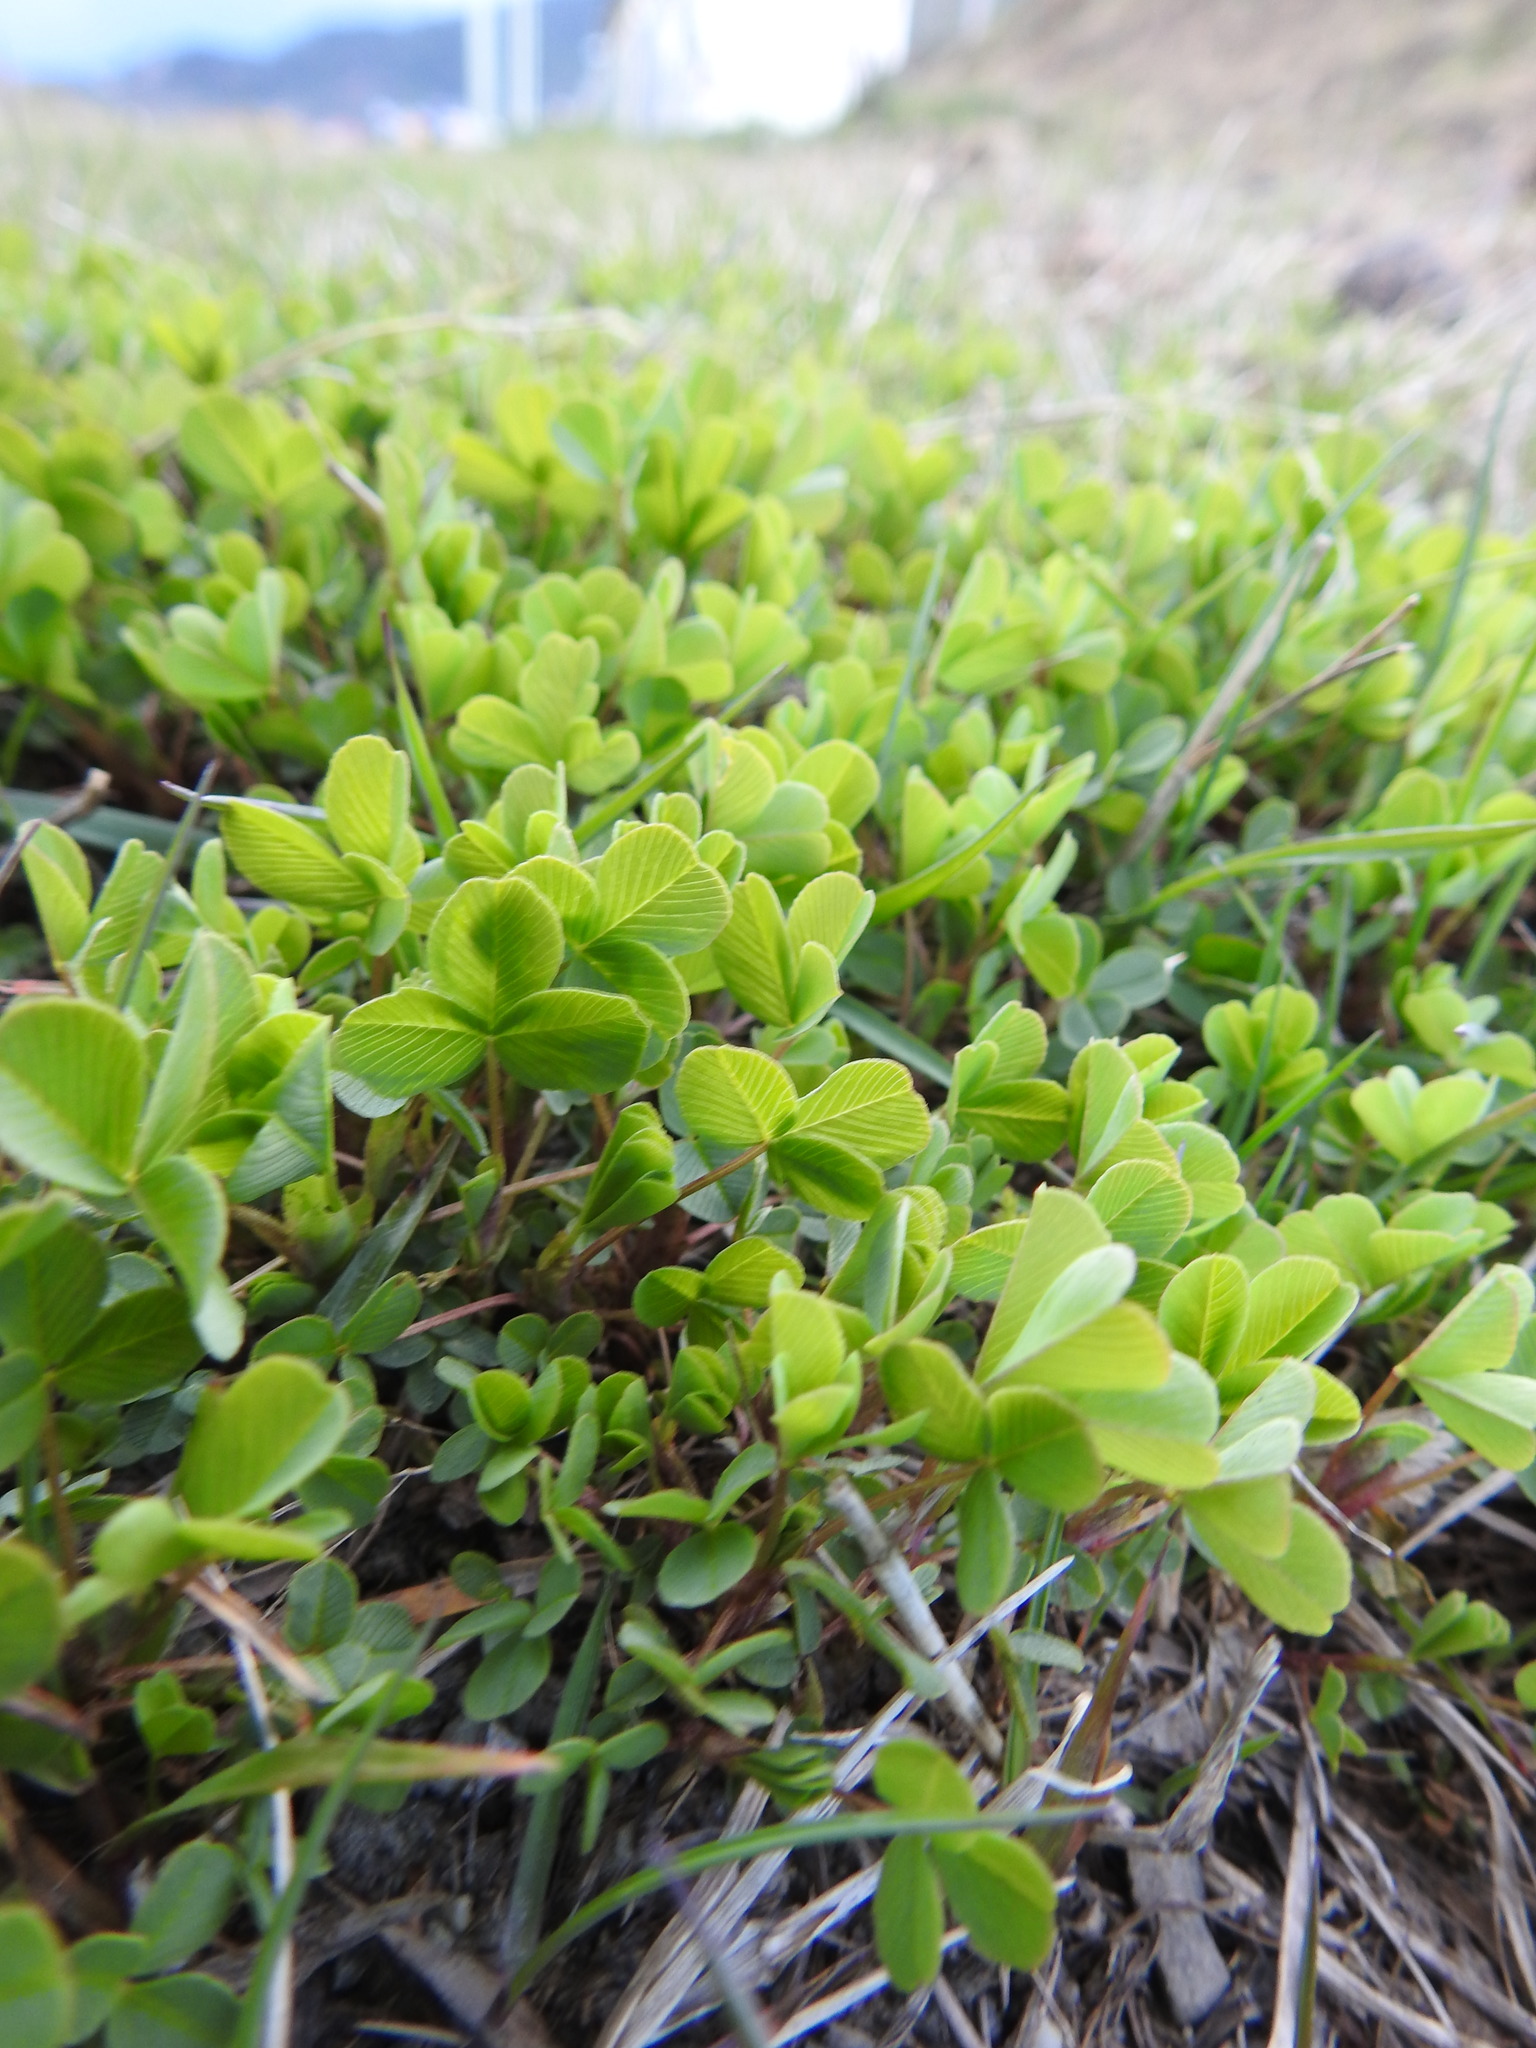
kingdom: Plantae
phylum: Tracheophyta
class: Magnoliopsida
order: Fabales
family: Fabaceae
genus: Trifolium
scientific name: Trifolium dubium
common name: Suckling clover
